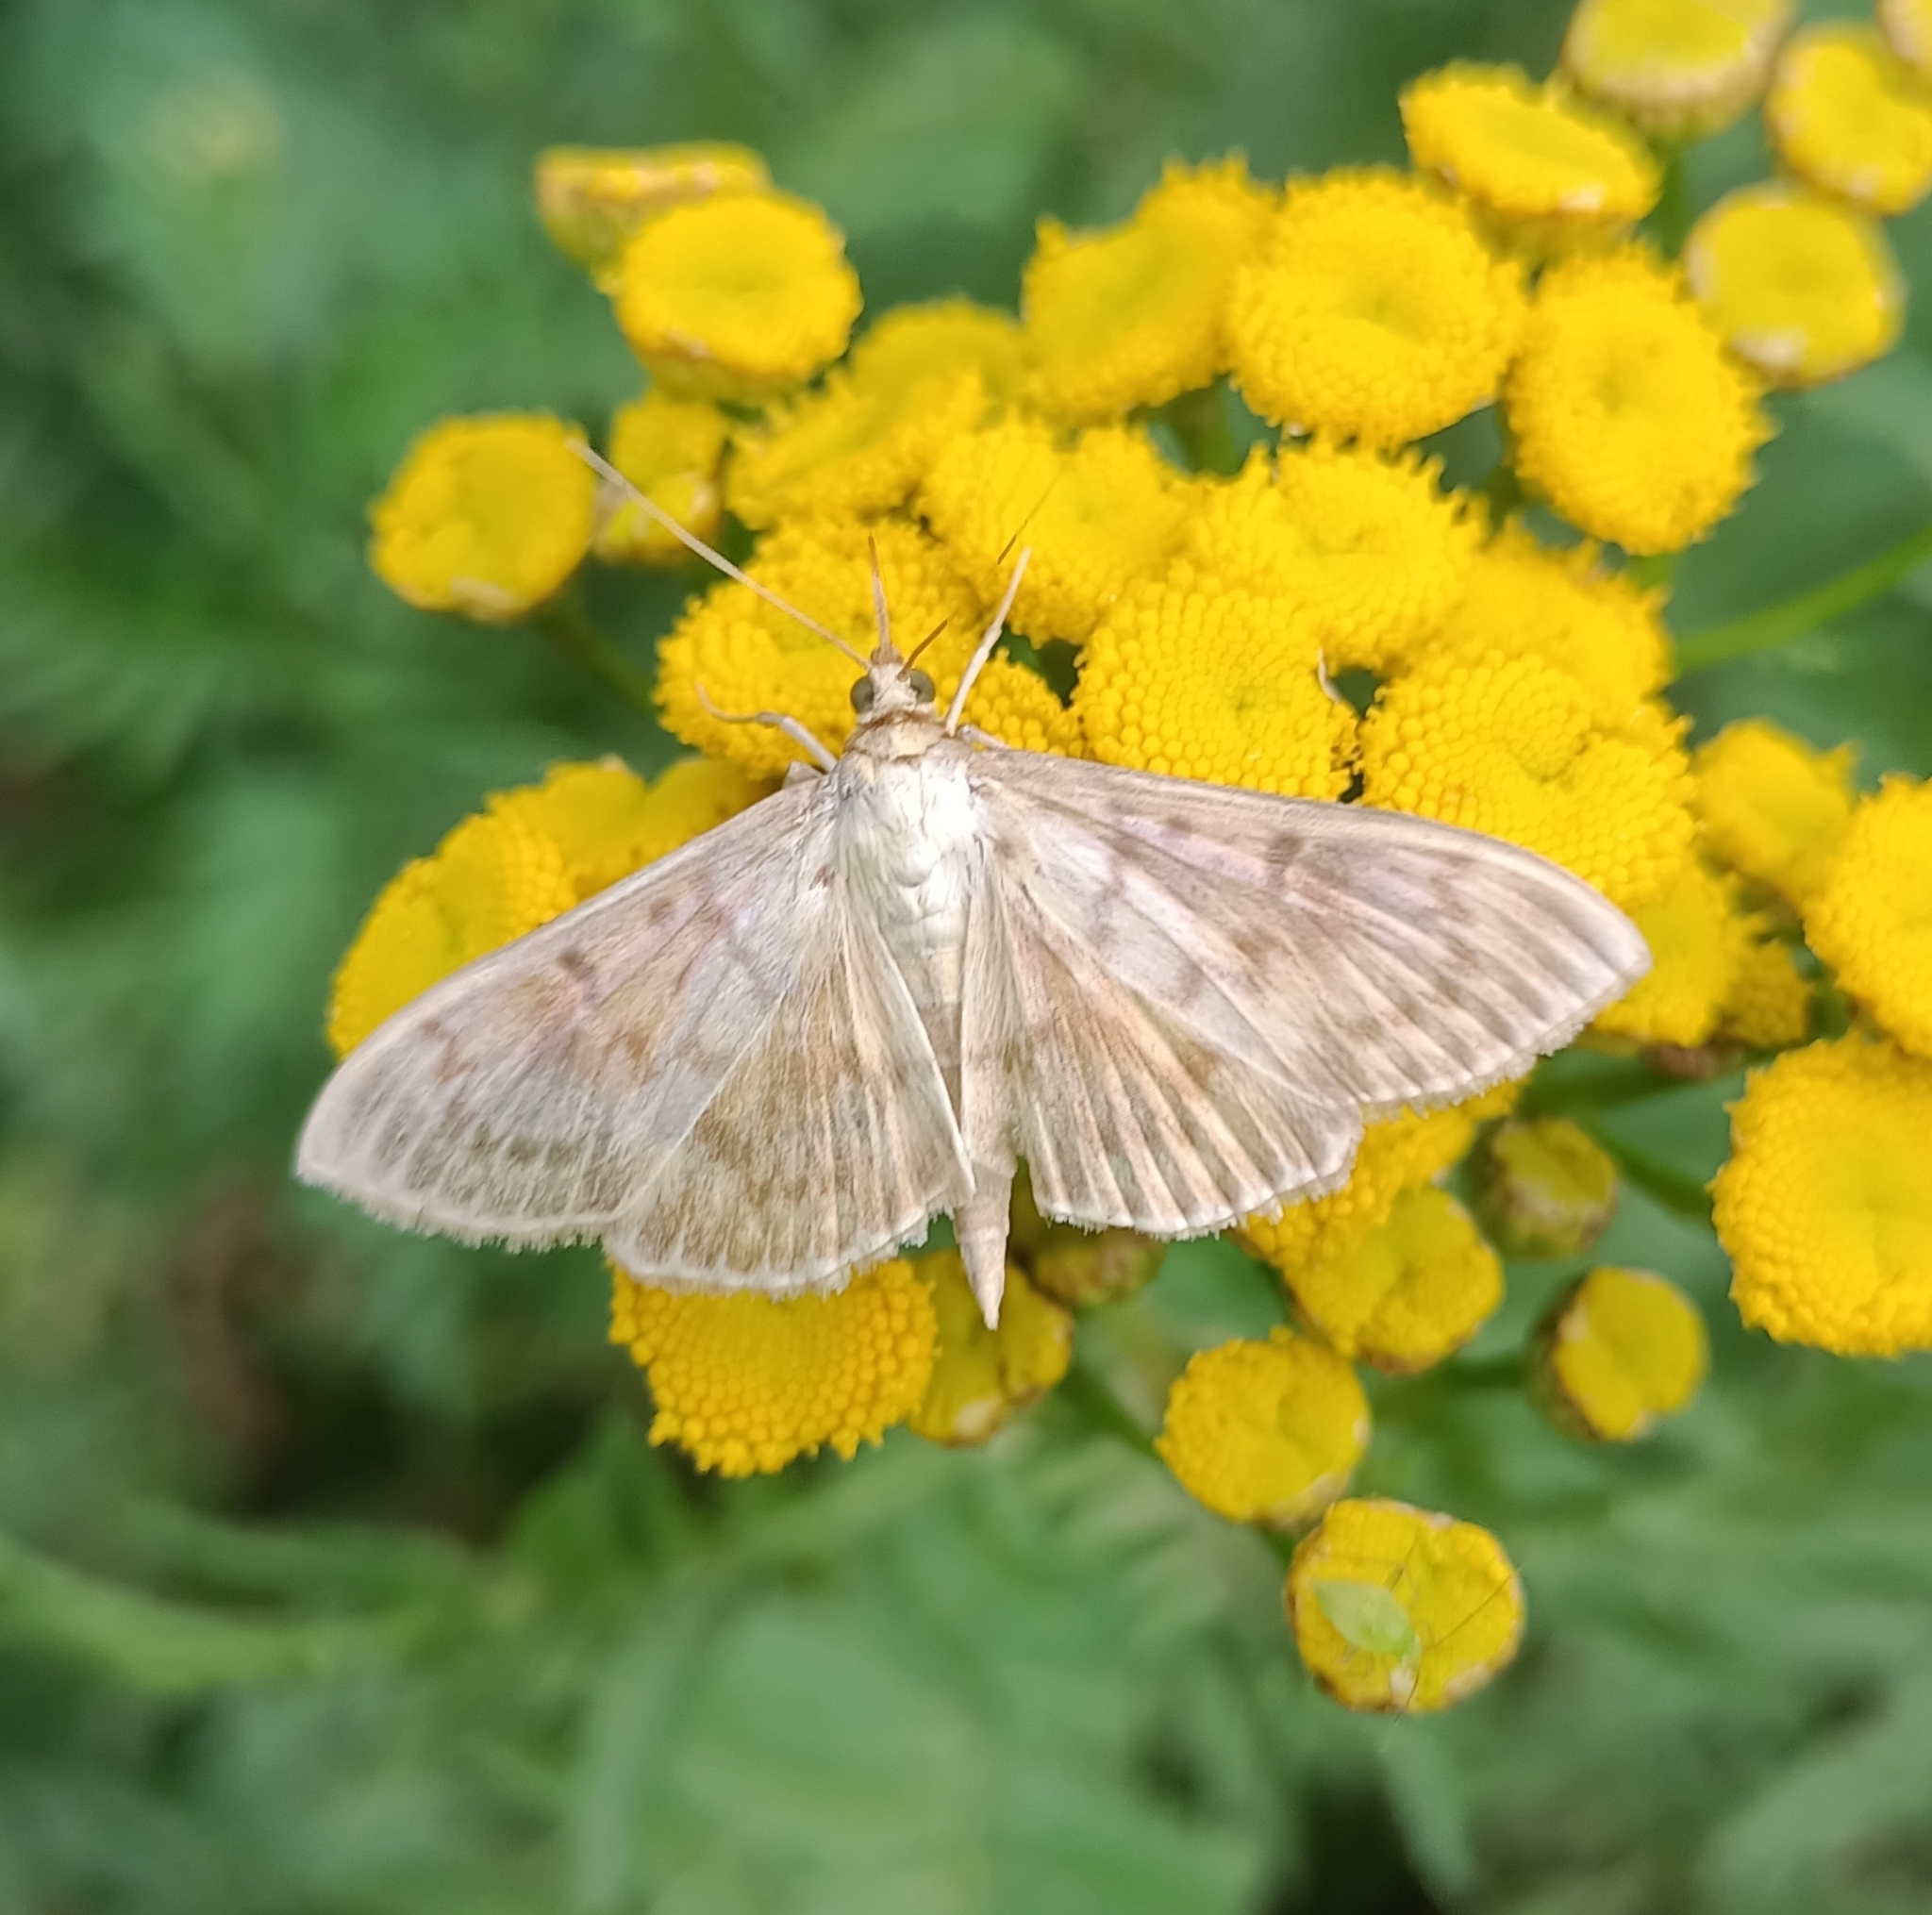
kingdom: Animalia
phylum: Arthropoda
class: Insecta
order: Lepidoptera
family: Crambidae
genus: Patania
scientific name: Patania ruralis
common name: Mother of pearl
